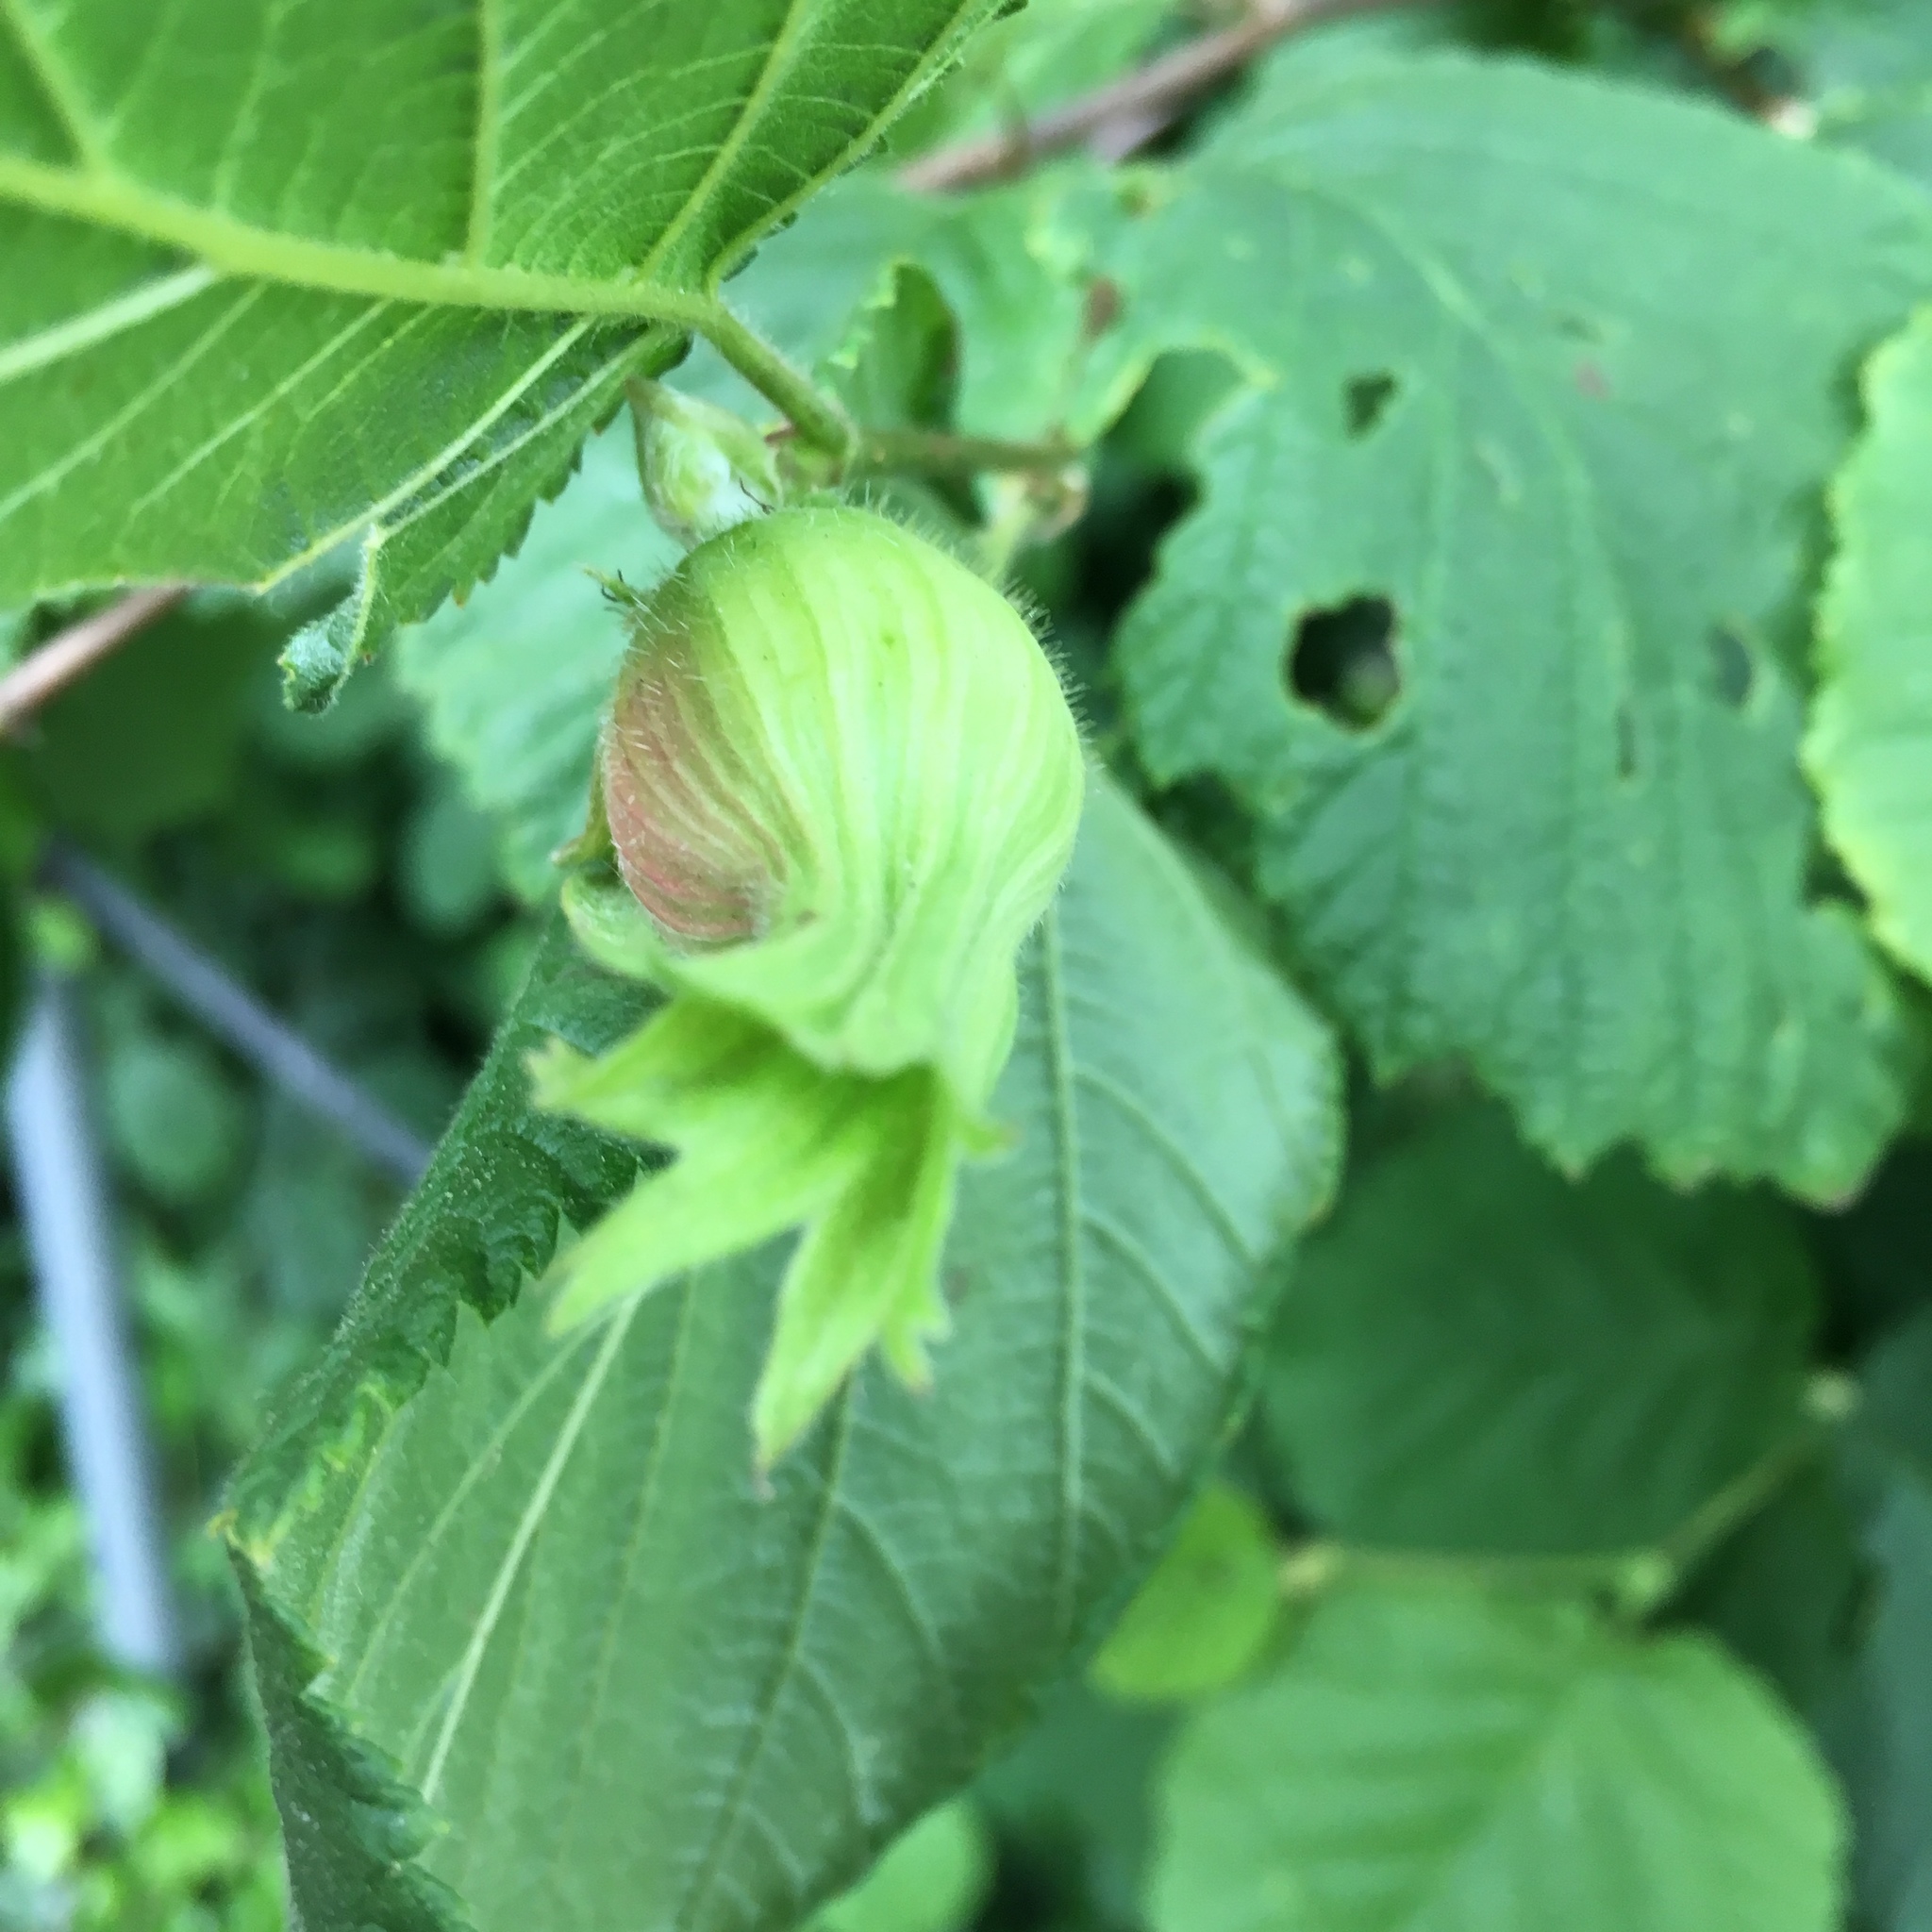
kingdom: Plantae
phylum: Tracheophyta
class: Magnoliopsida
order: Fagales
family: Betulaceae
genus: Corylus
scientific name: Corylus cornuta
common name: Beaked hazel
